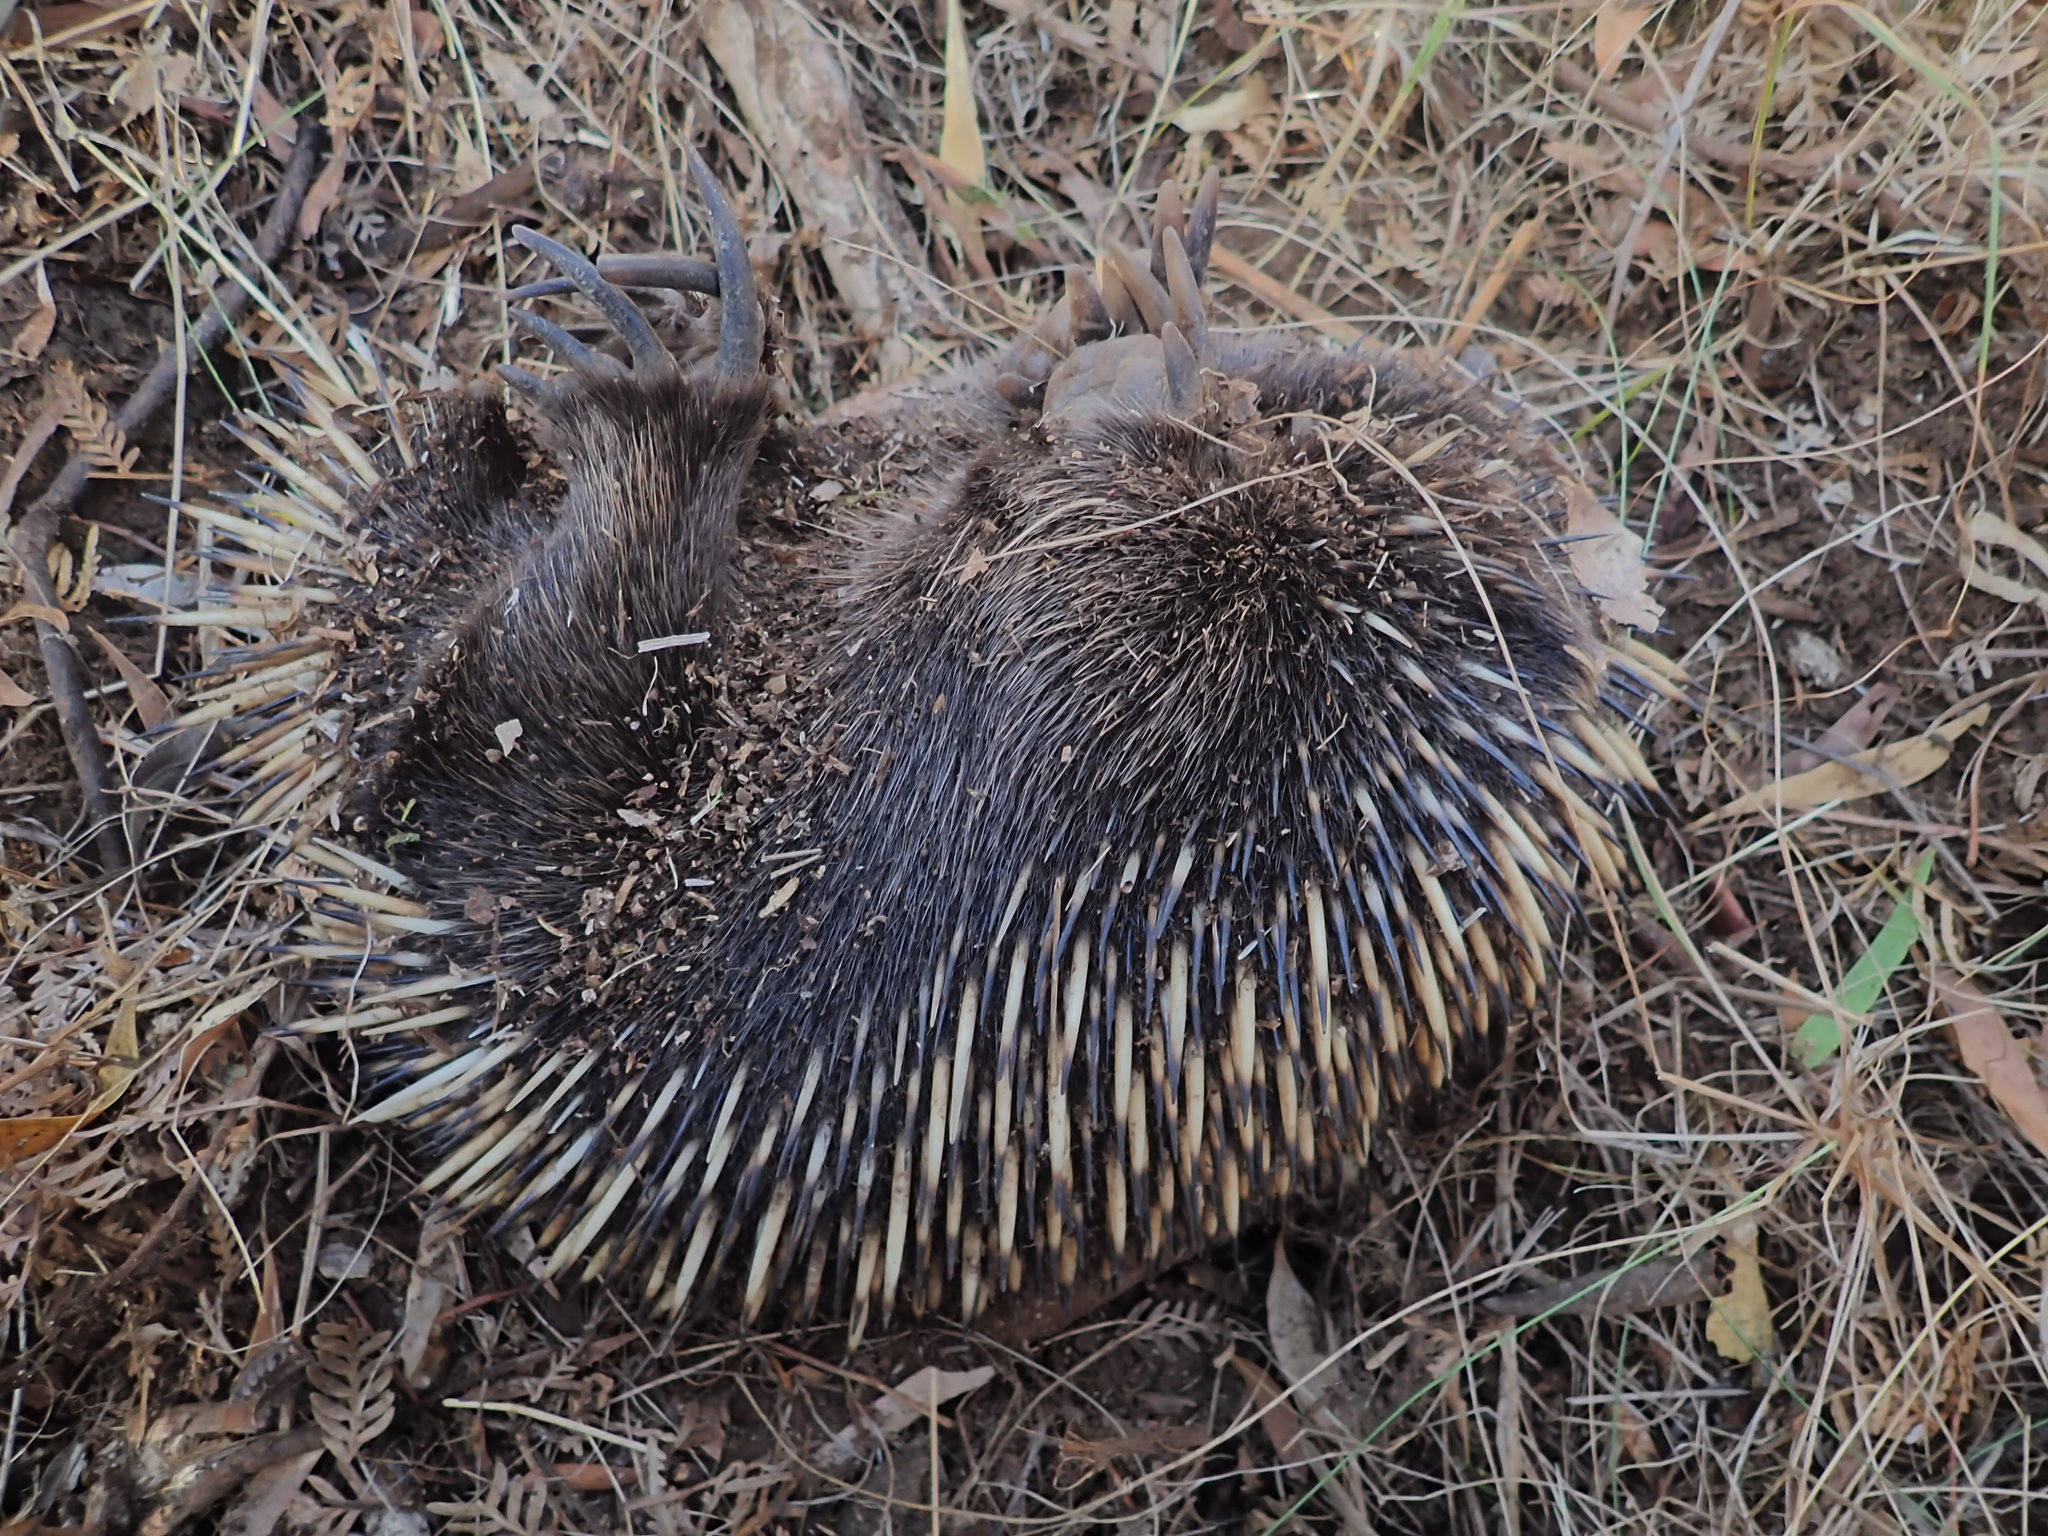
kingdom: Animalia
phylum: Chordata
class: Mammalia
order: Monotremata
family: Tachyglossidae
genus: Tachyglossus
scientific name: Tachyglossus aculeatus
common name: Short-beaked echidna
